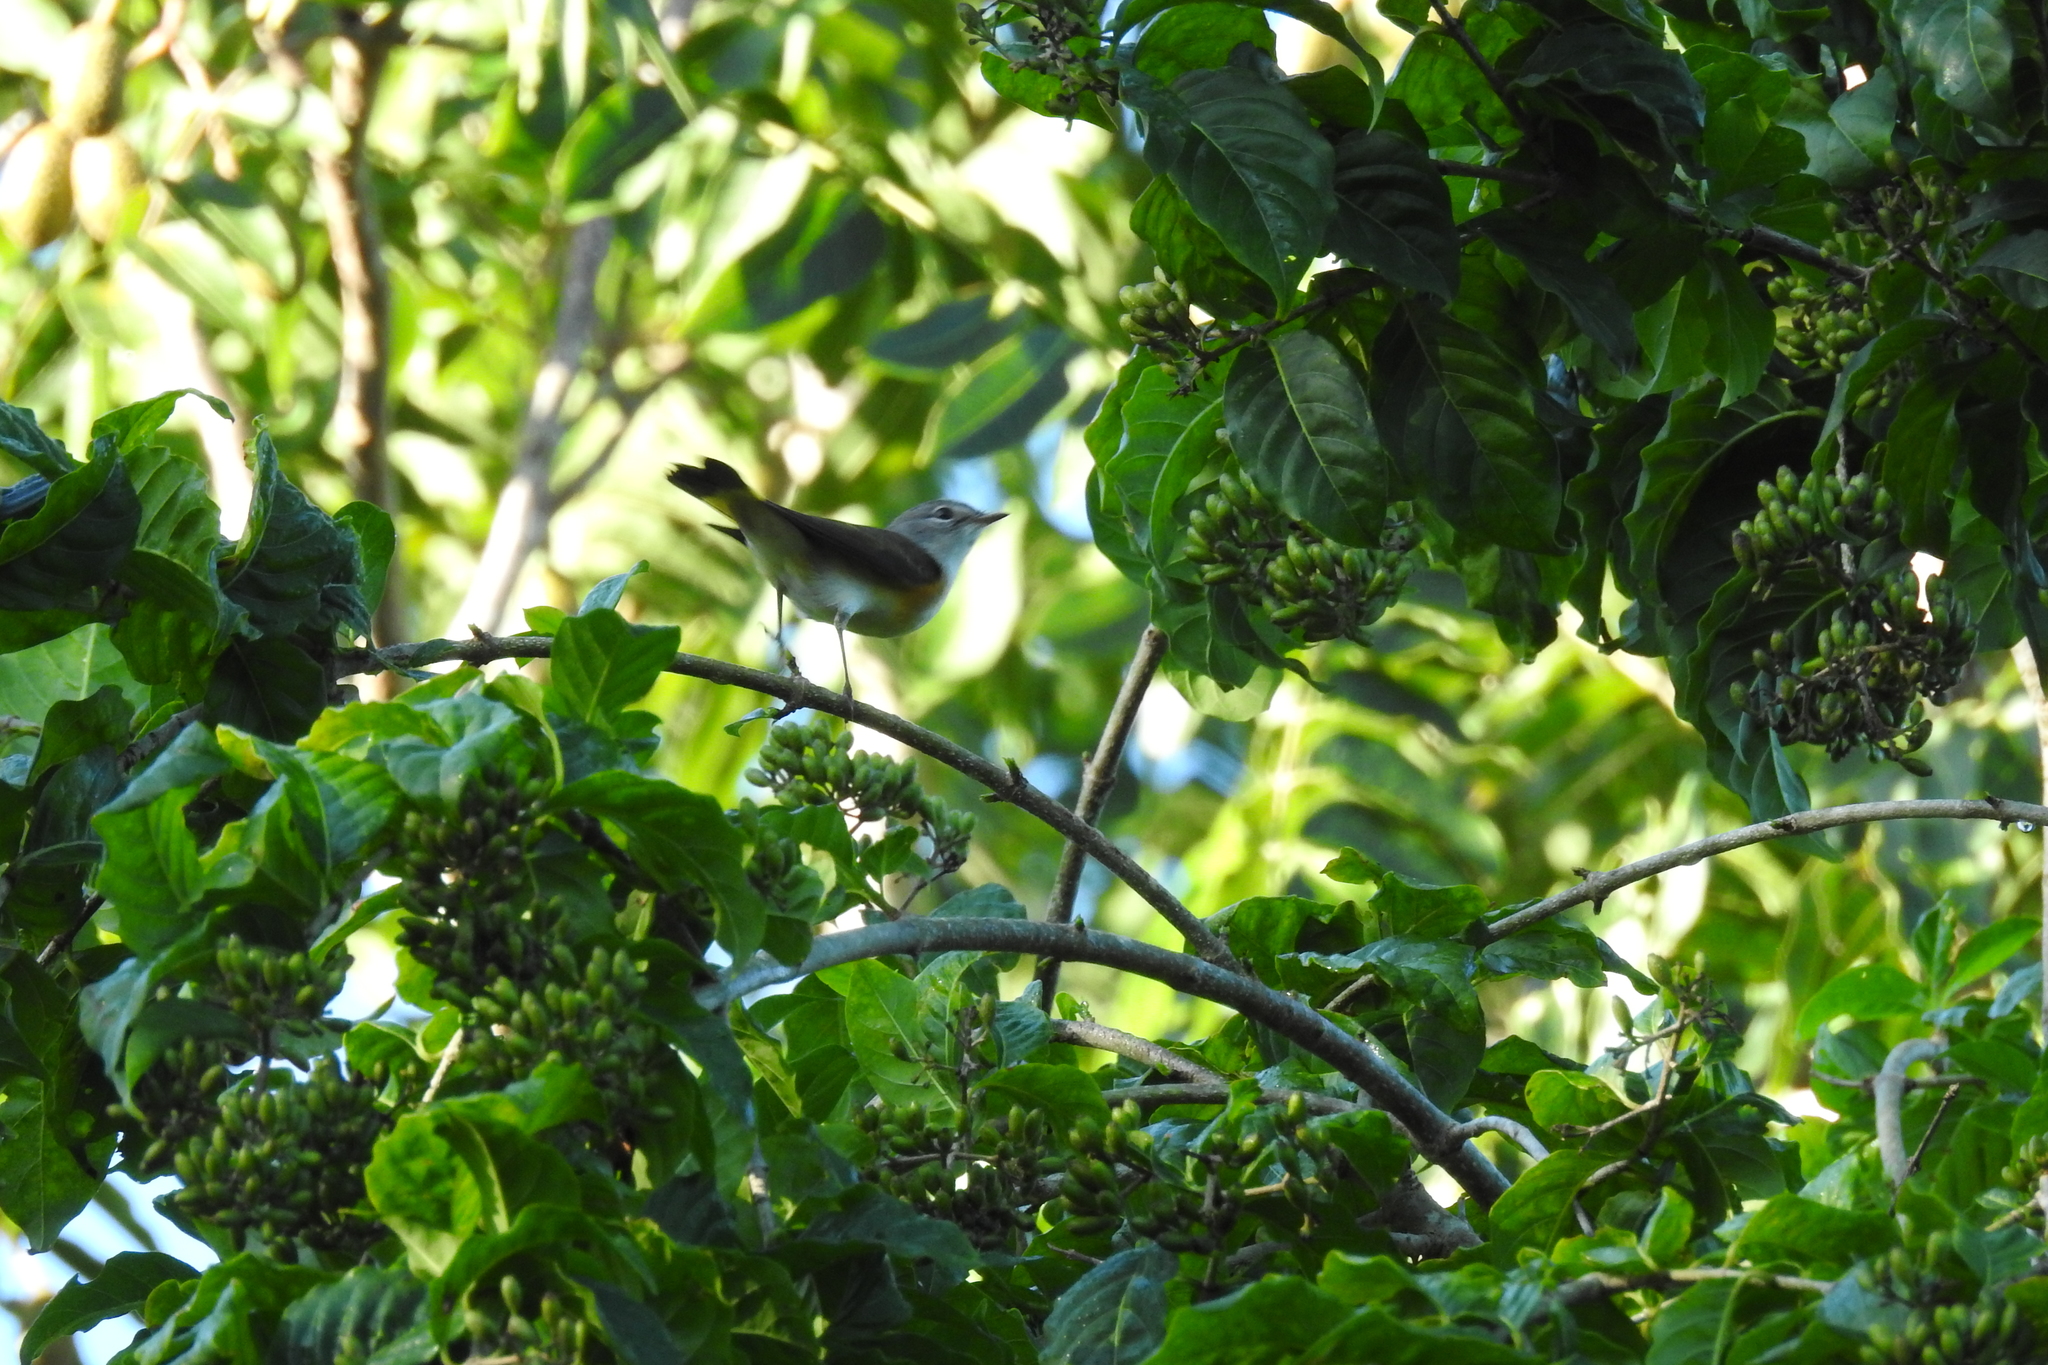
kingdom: Animalia
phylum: Chordata
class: Aves
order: Passeriformes
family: Parulidae
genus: Setophaga
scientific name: Setophaga ruticilla
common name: American redstart
